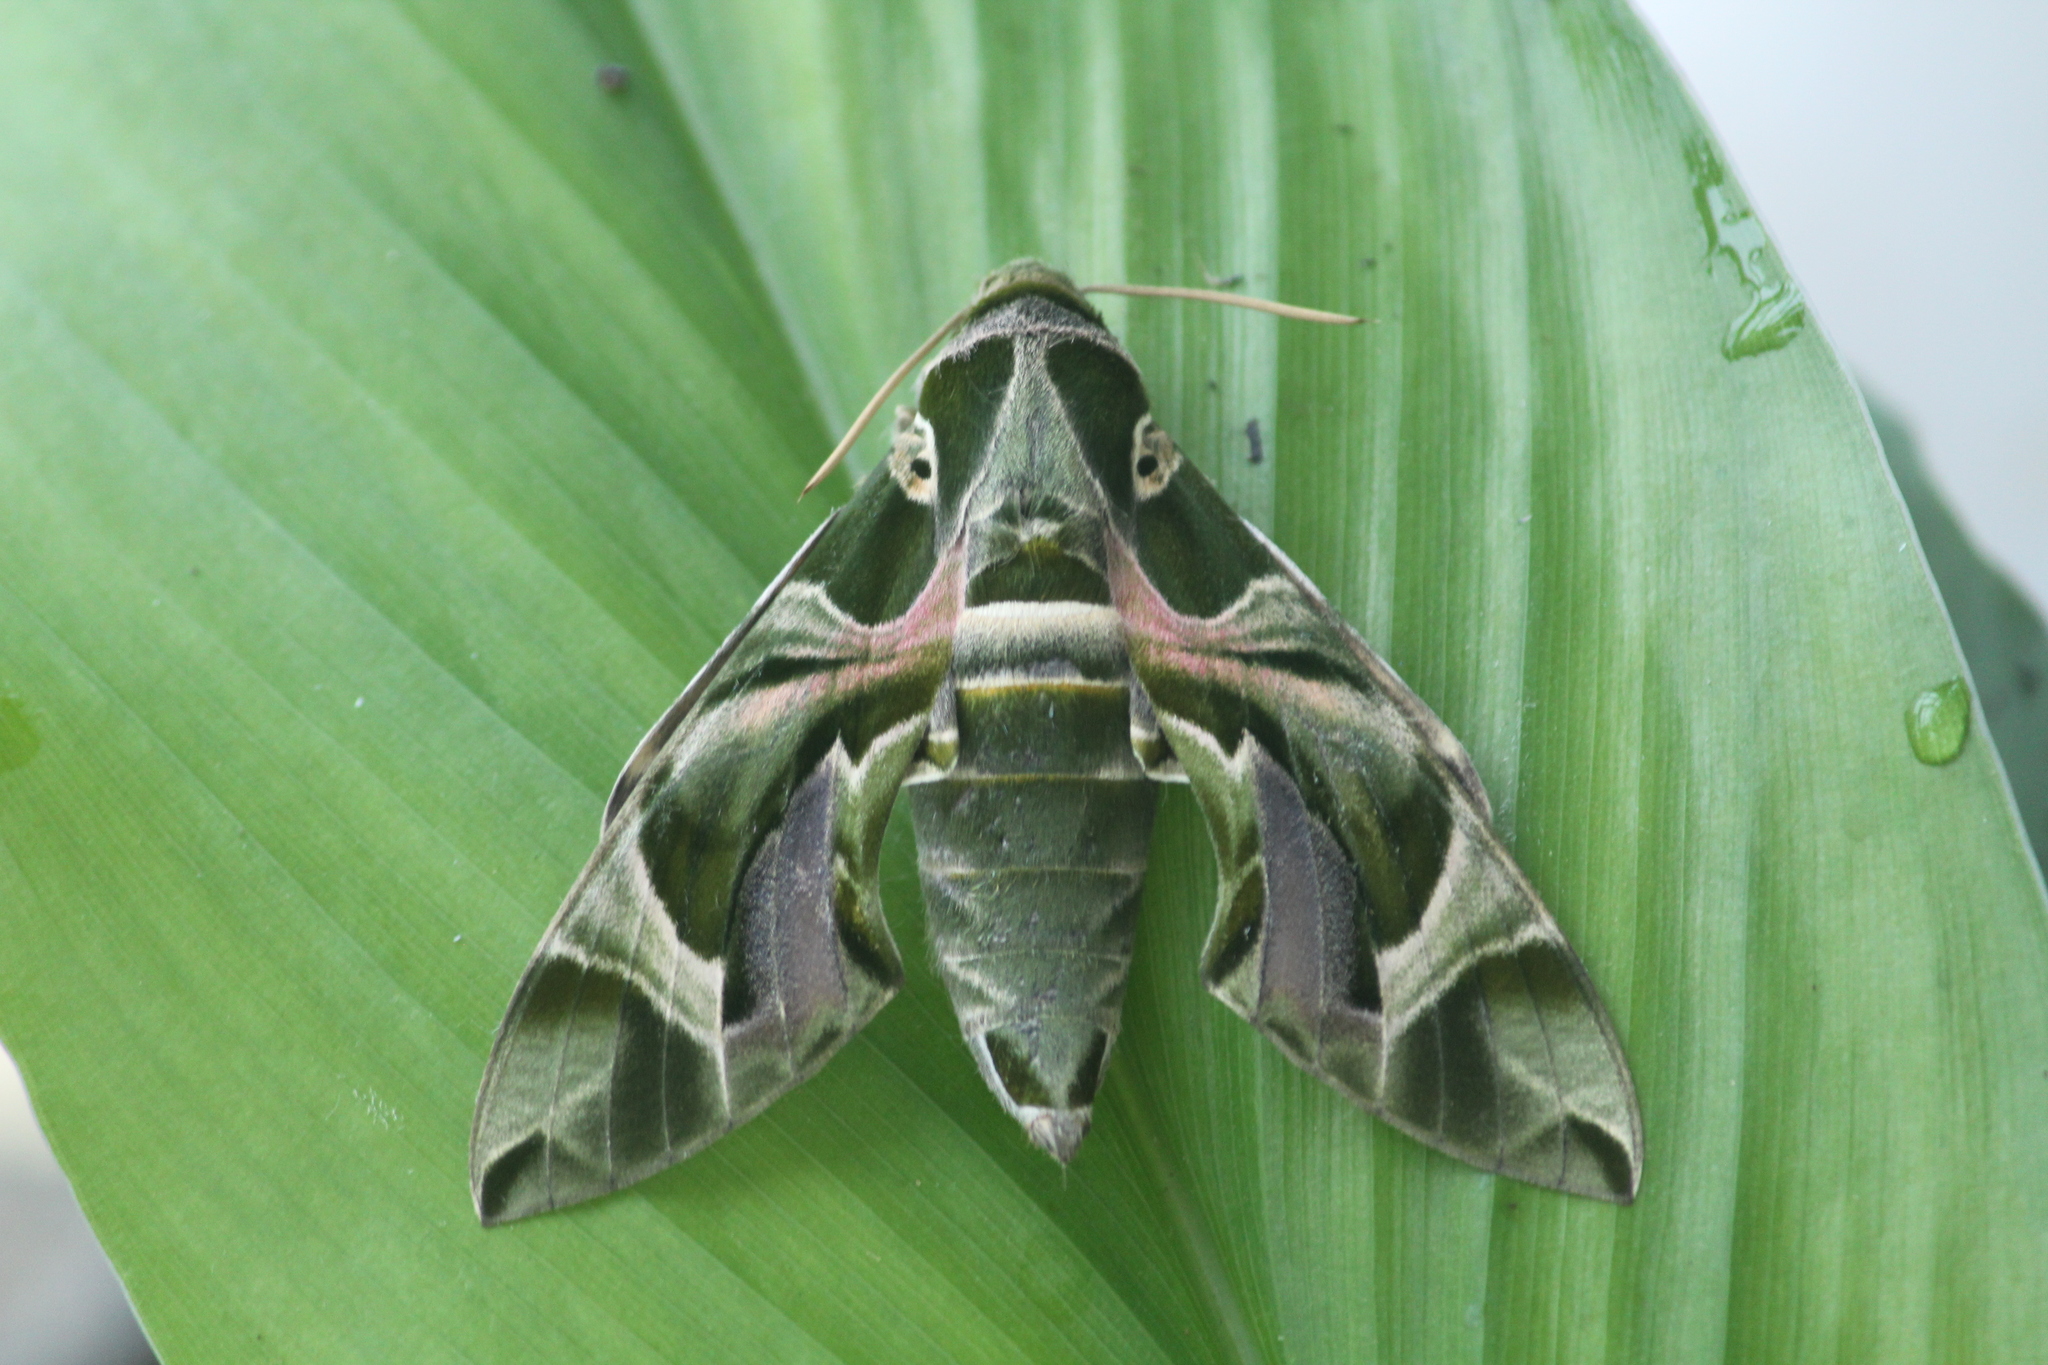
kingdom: Animalia
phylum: Arthropoda
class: Insecta
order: Lepidoptera
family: Sphingidae
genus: Daphnis
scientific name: Daphnis nerii
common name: Oleander hawk-moth
